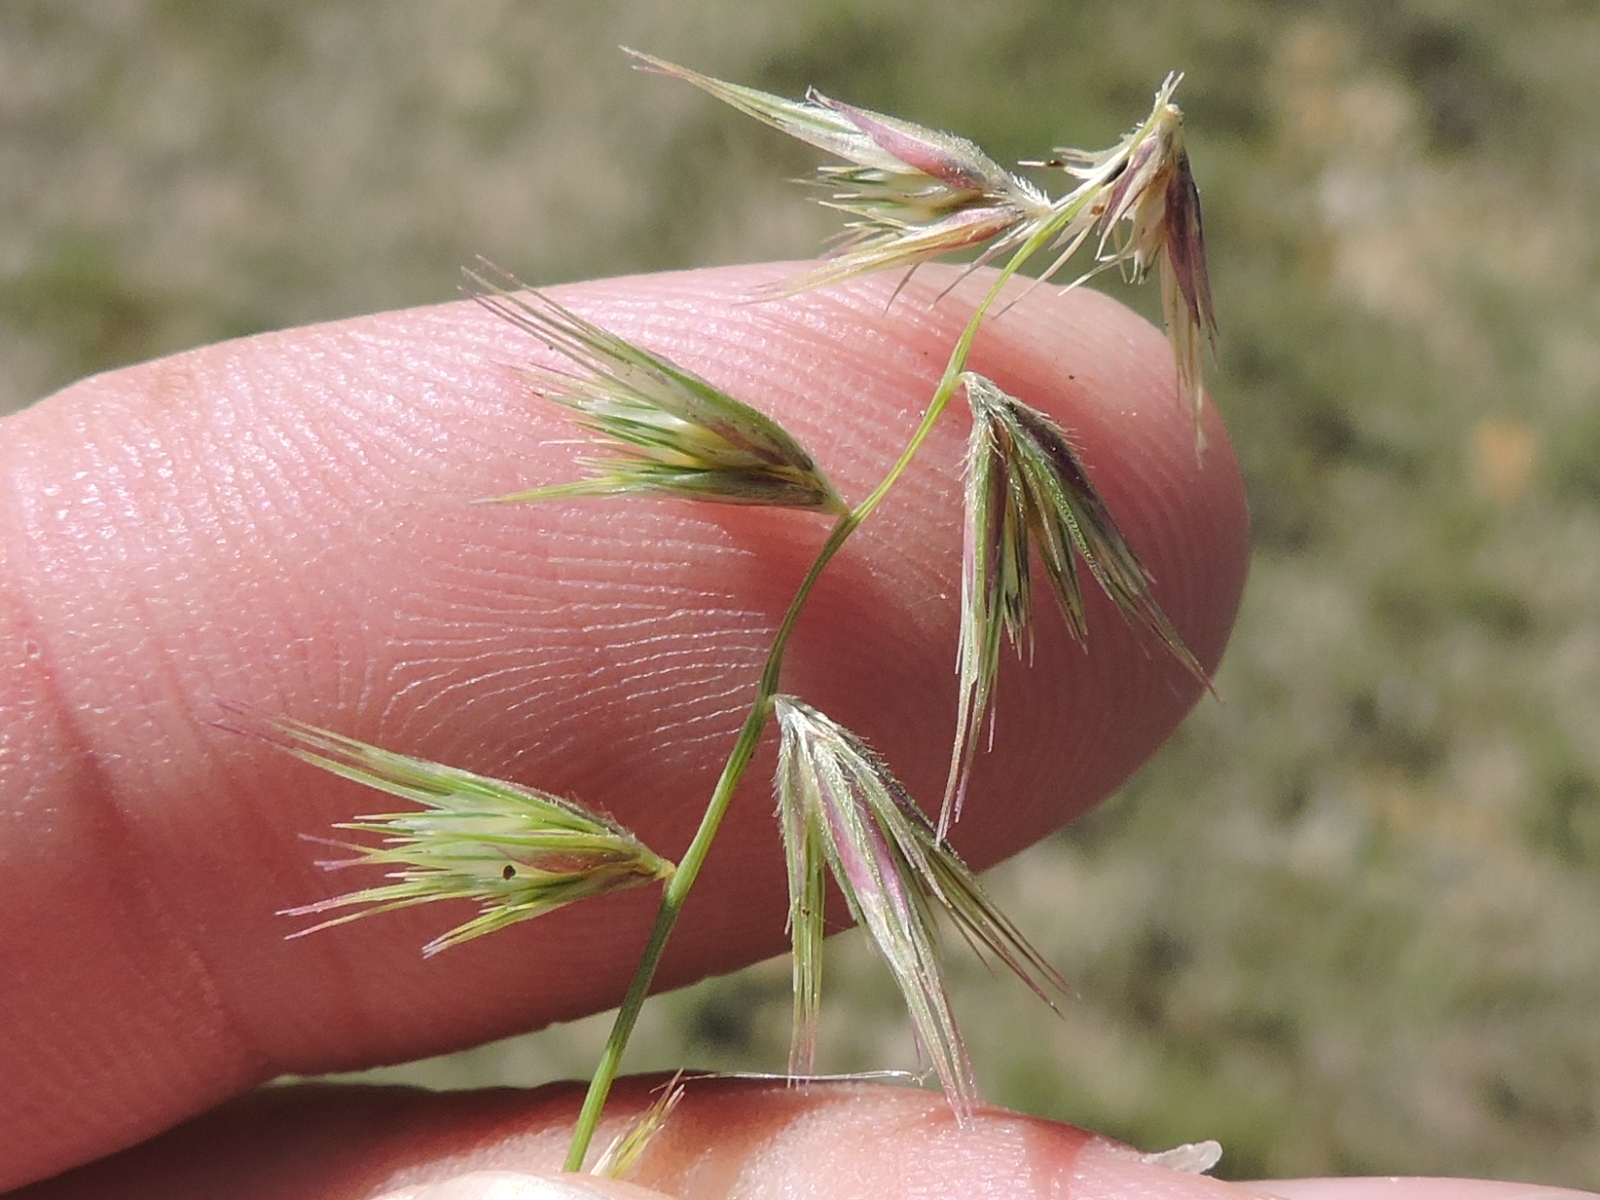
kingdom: Plantae
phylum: Tracheophyta
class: Liliopsida
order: Poales
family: Poaceae
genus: Bouteloua
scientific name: Bouteloua rigidiseta
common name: Texas grama
